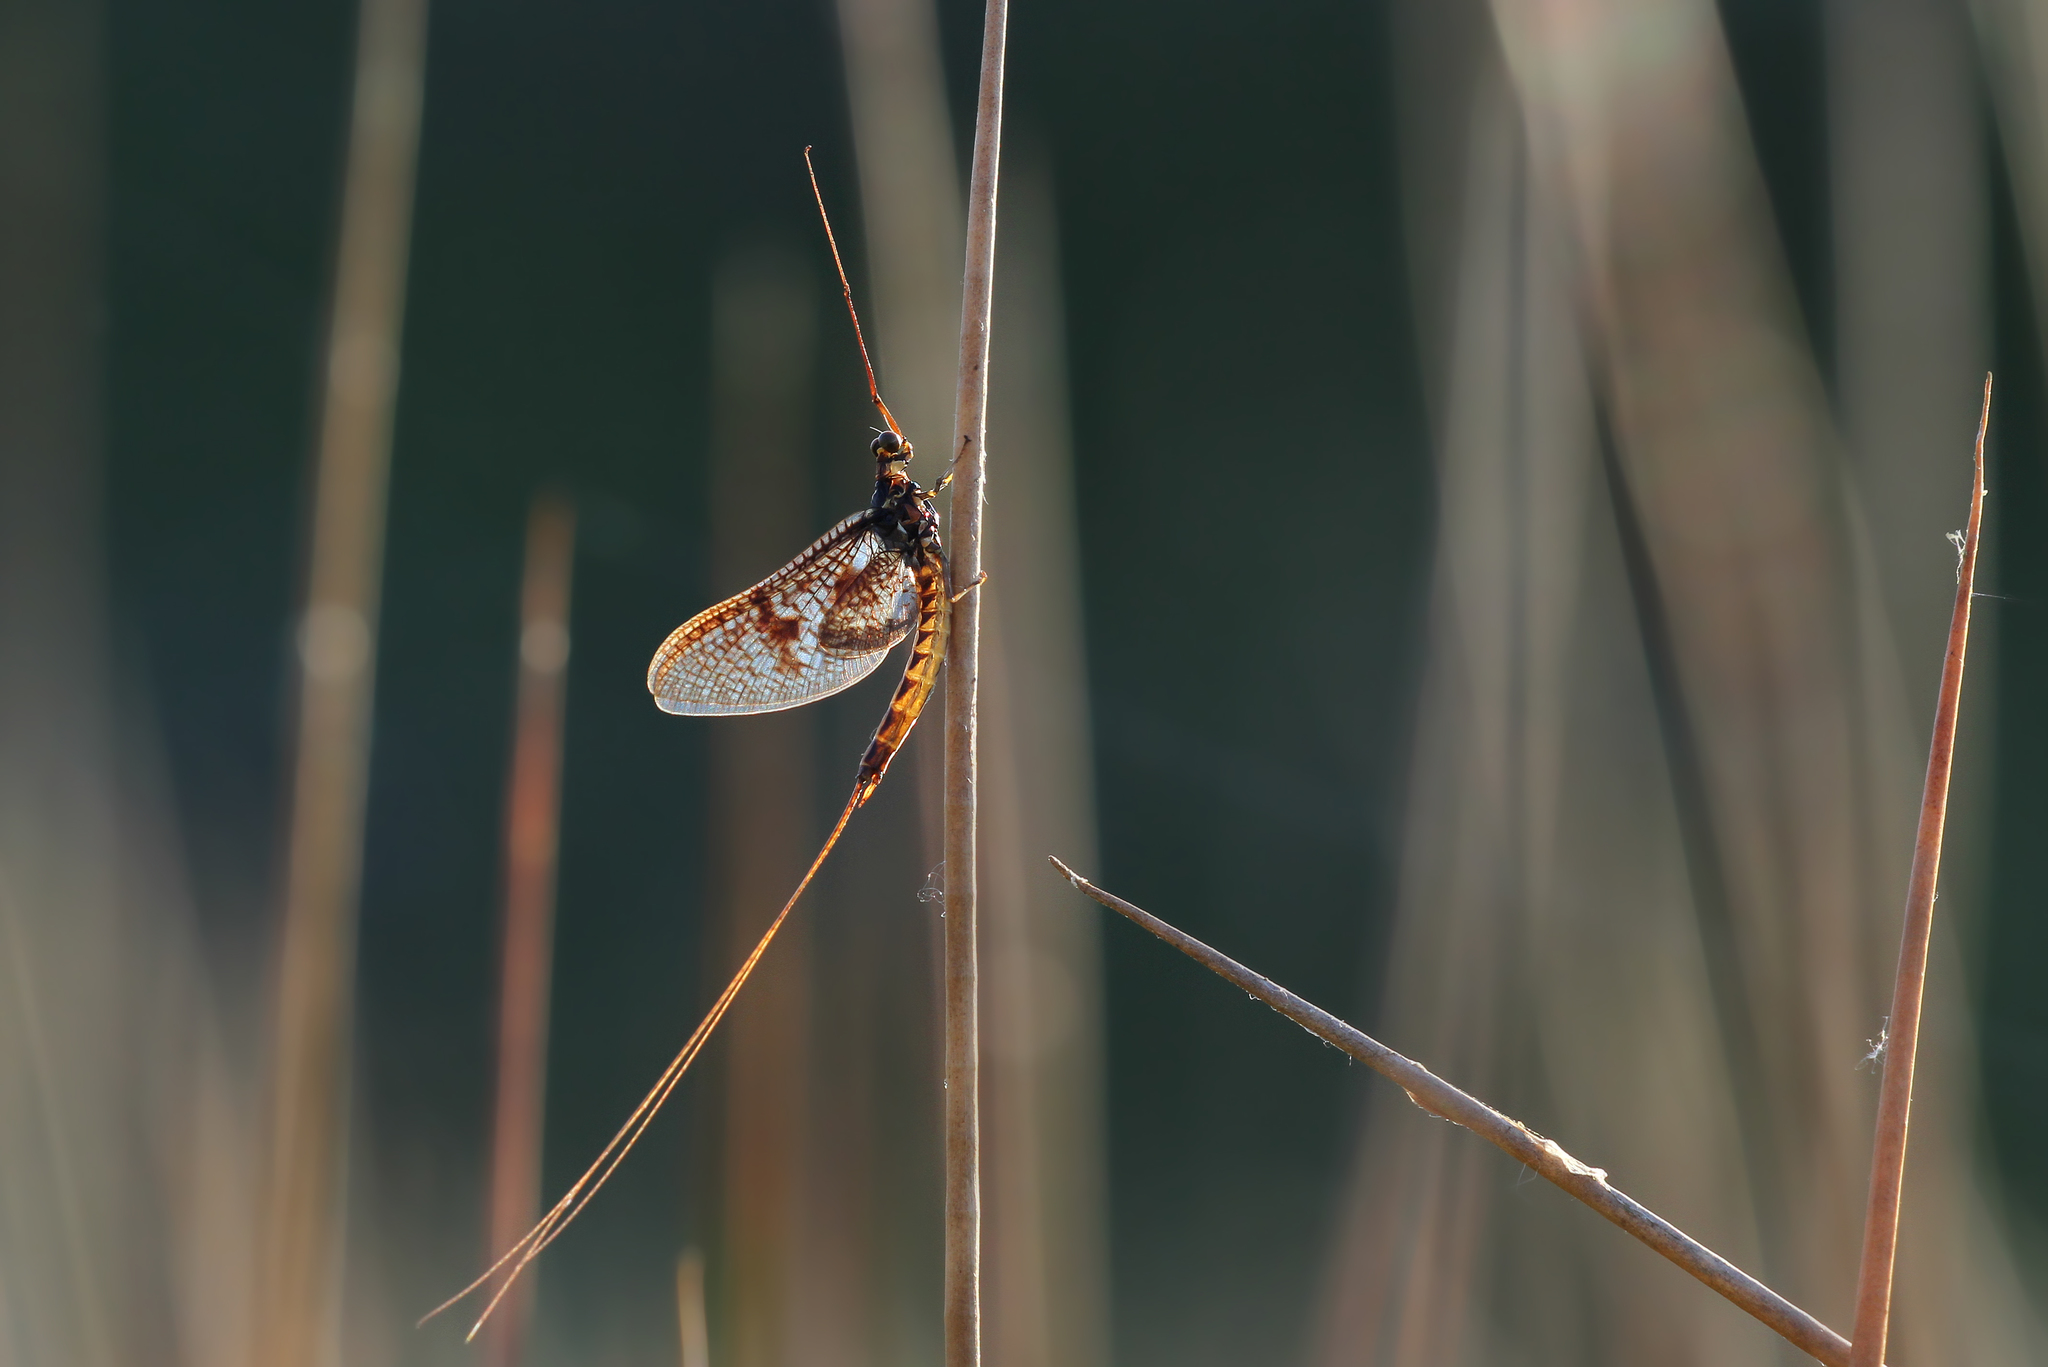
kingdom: Animalia
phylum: Arthropoda
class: Insecta
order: Ephemeroptera
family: Ephemeridae
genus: Ephemera
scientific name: Ephemera vulgata
